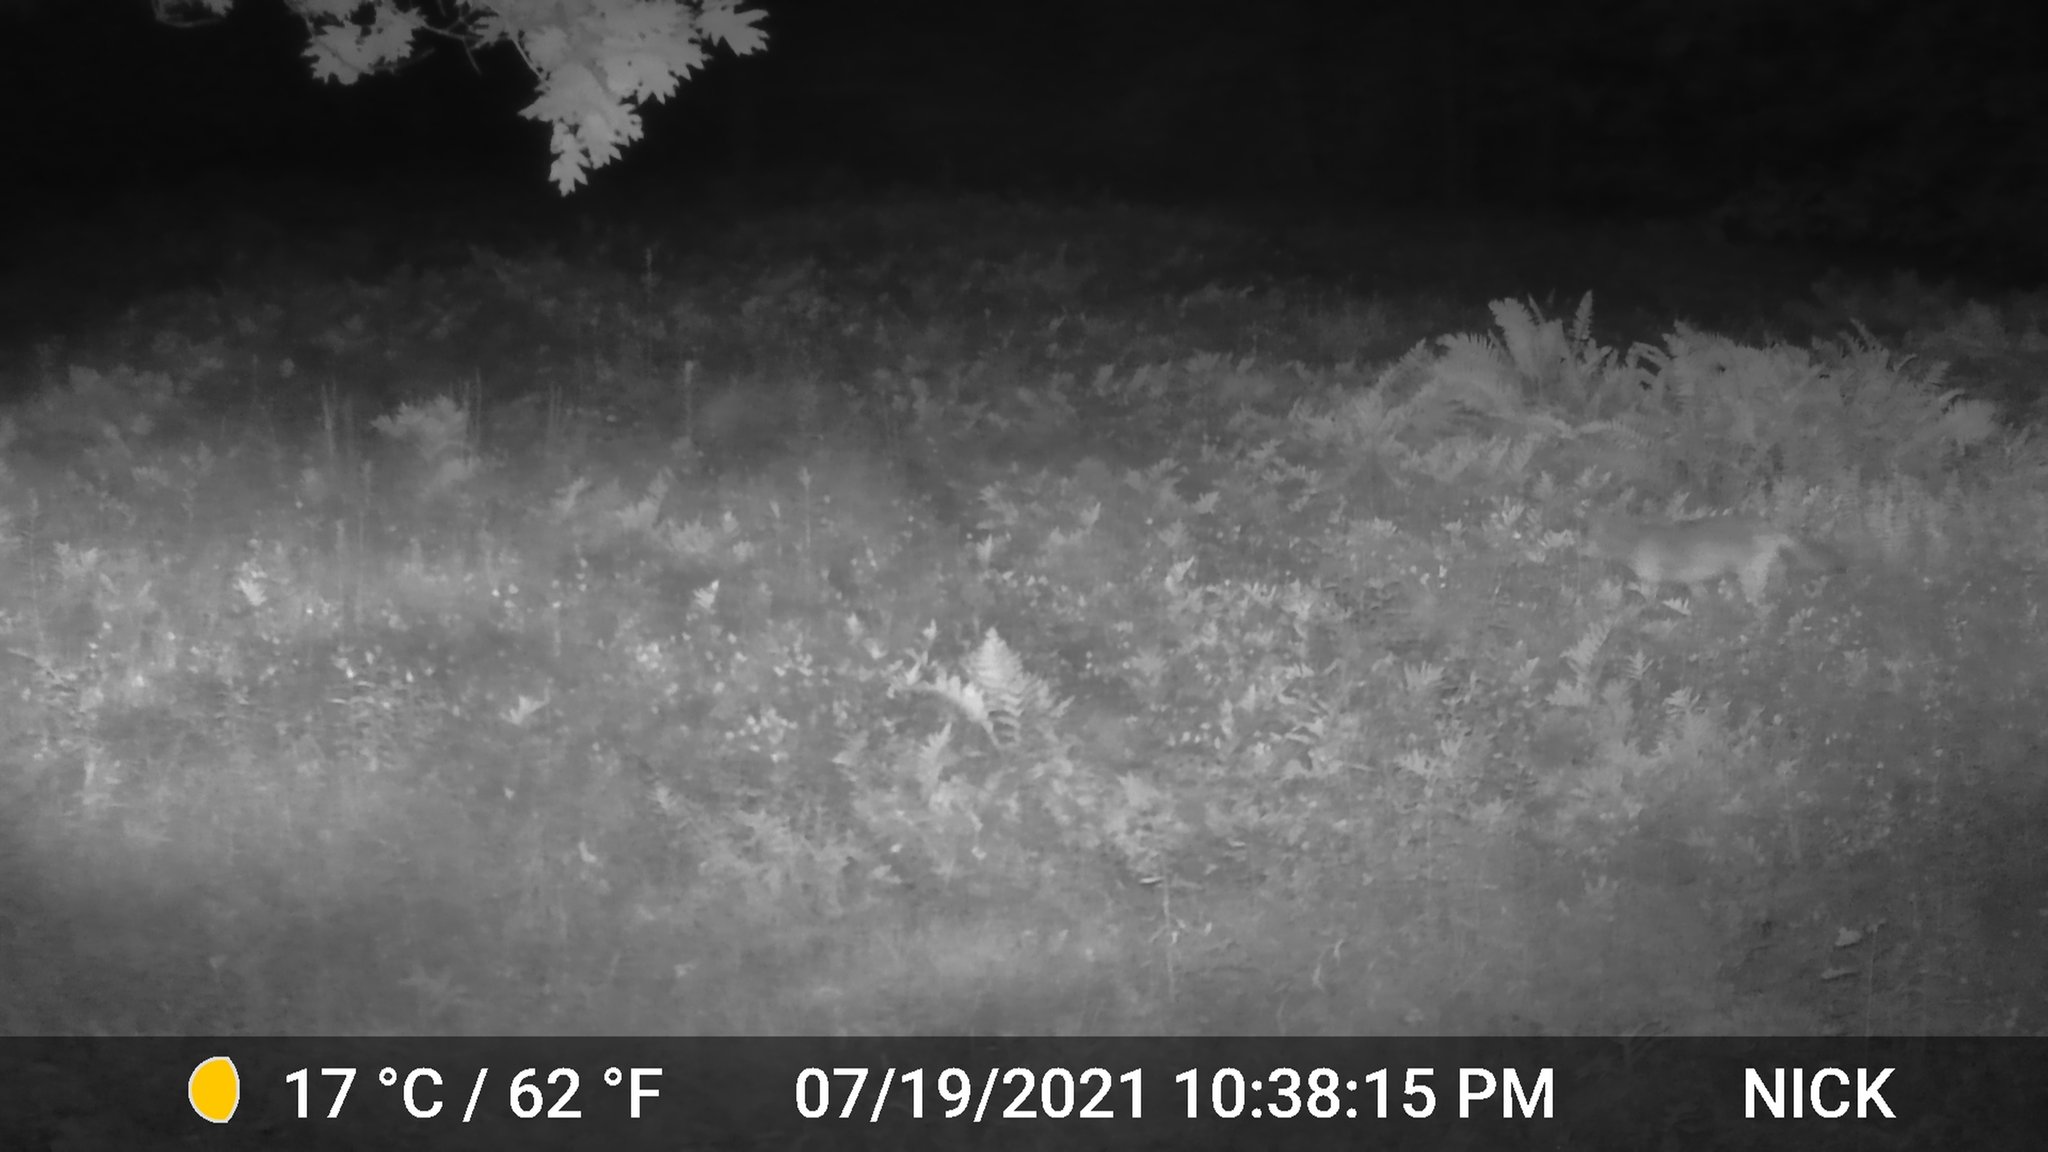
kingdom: Animalia
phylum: Chordata
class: Mammalia
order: Carnivora
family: Canidae
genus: Canis
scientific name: Canis latrans
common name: Coyote
